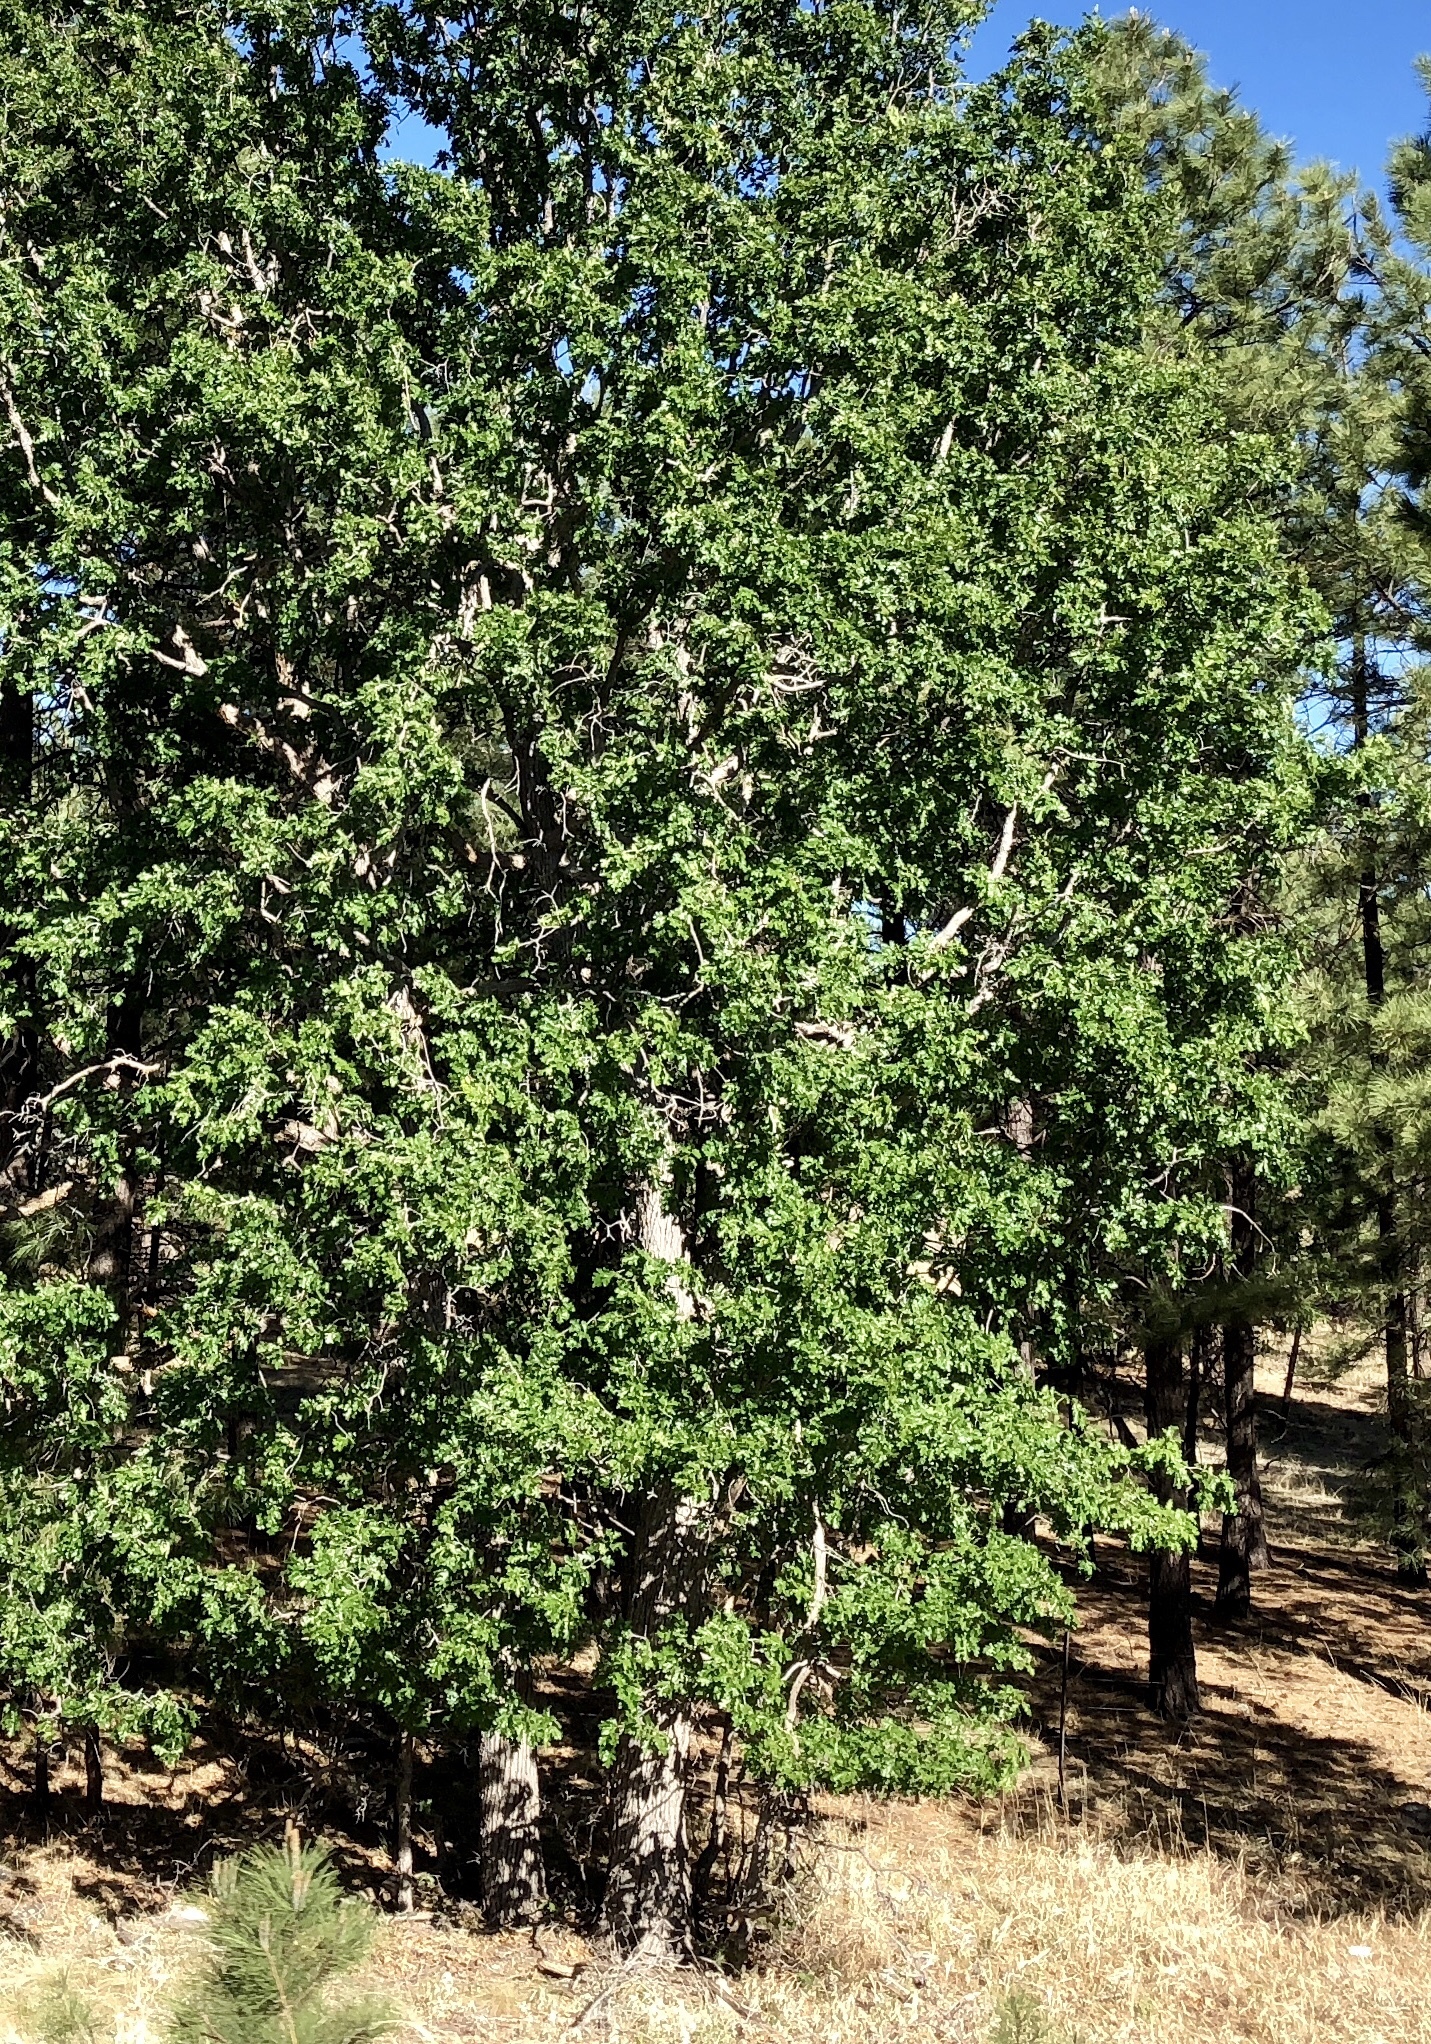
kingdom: Plantae
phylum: Tracheophyta
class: Magnoliopsida
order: Fagales
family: Fagaceae
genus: Quercus
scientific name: Quercus gambelii
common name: Gambel oak
